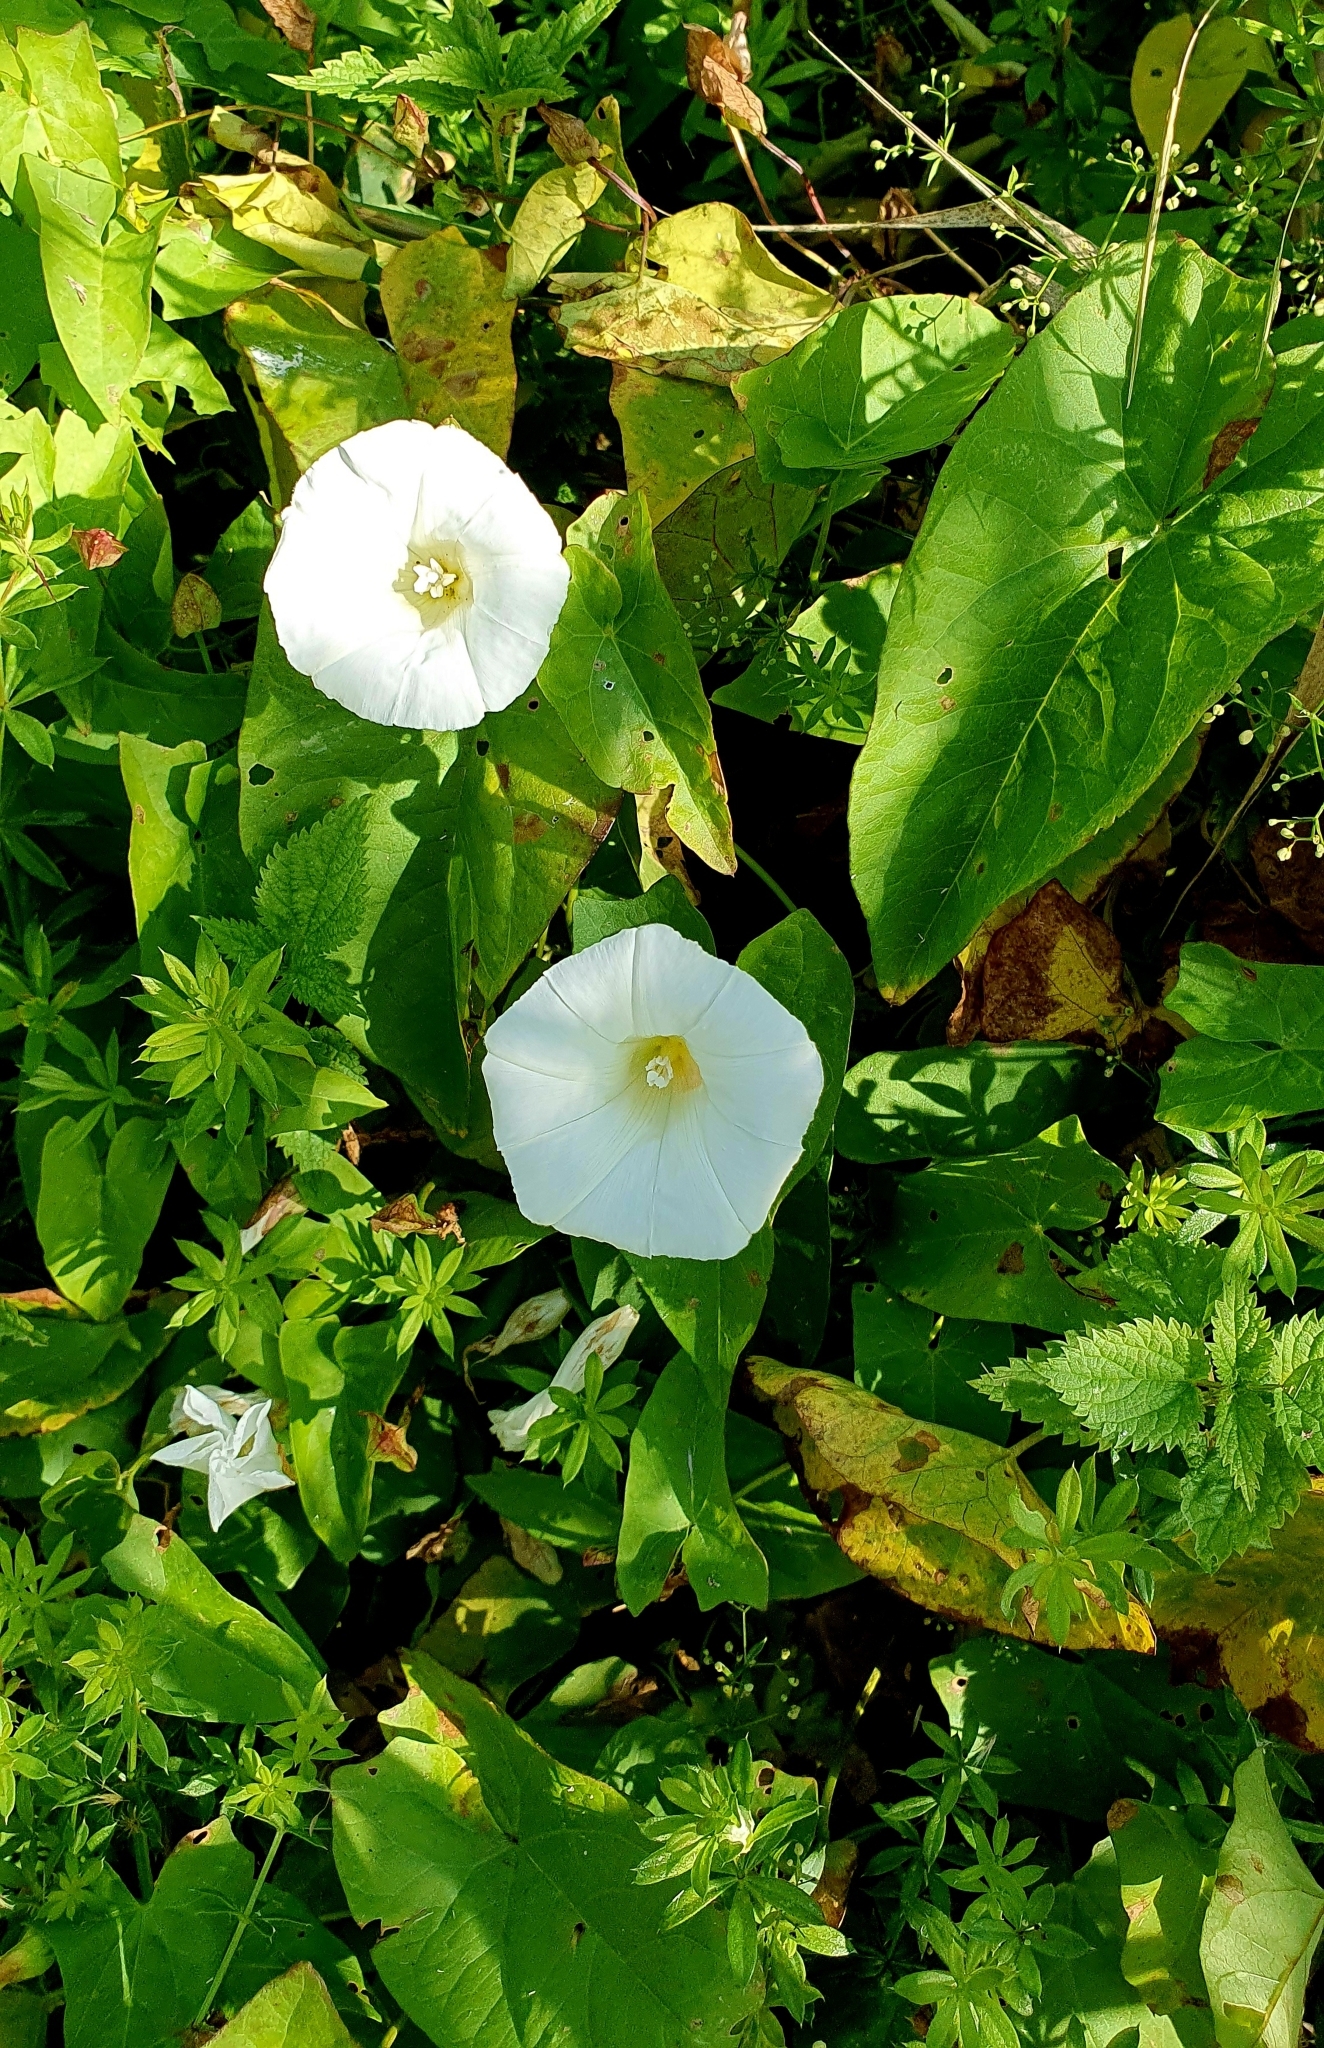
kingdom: Plantae
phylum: Tracheophyta
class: Magnoliopsida
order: Solanales
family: Convolvulaceae
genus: Calystegia
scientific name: Calystegia sepium
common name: Hedge bindweed
